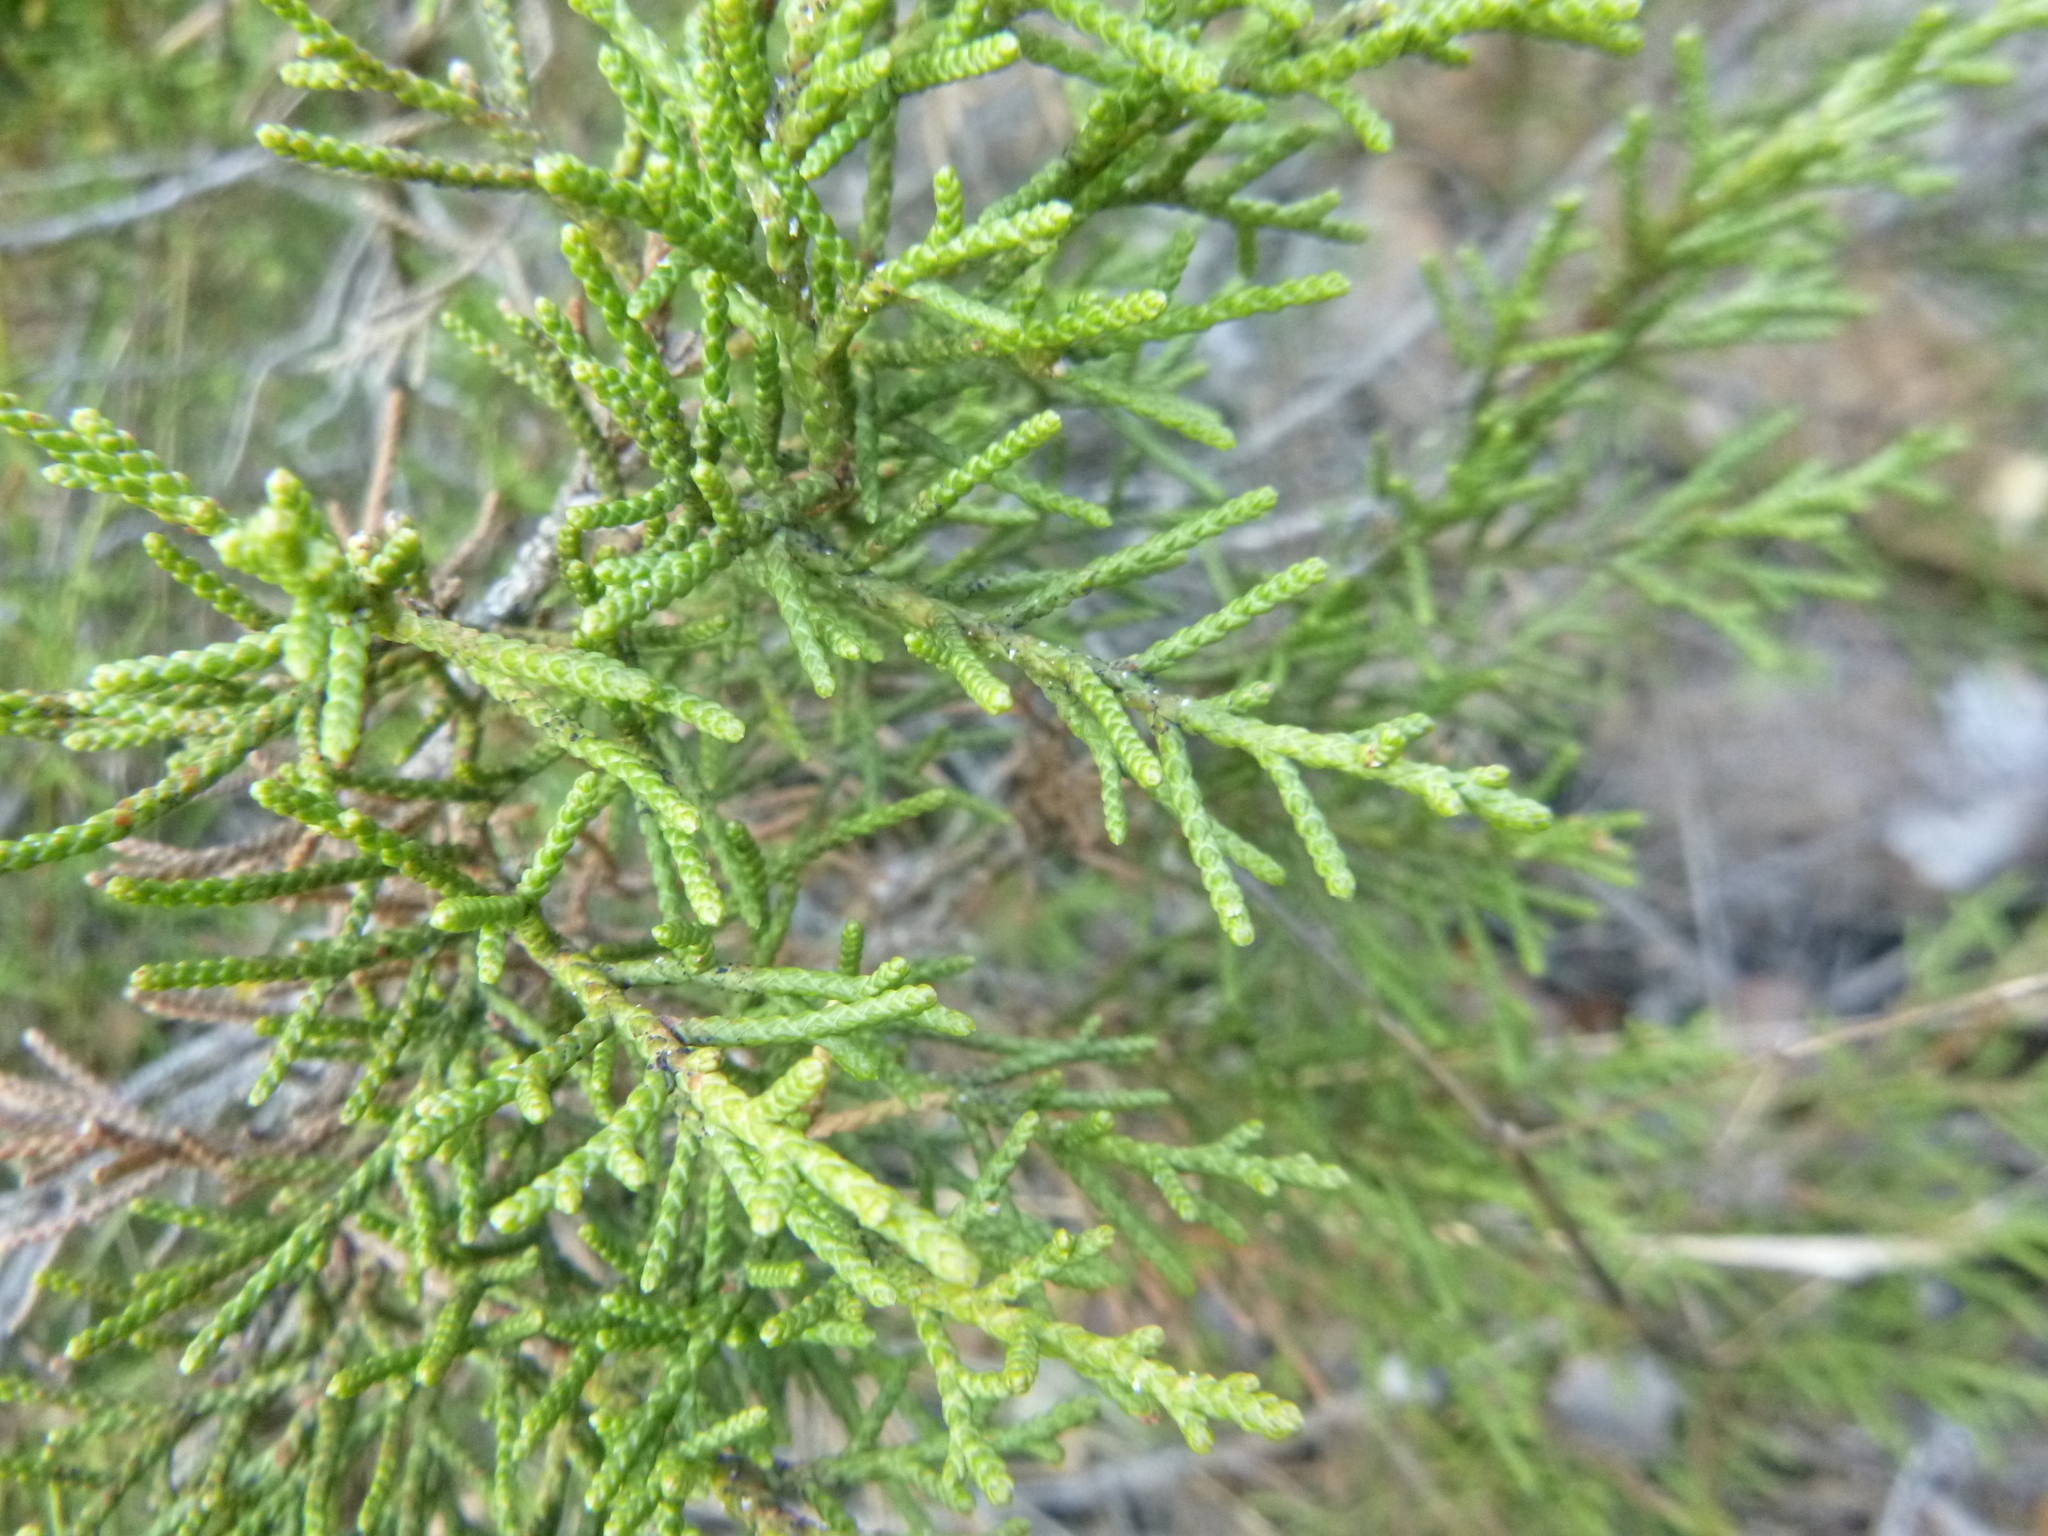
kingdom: Plantae
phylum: Tracheophyta
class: Pinopsida
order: Pinales
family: Cupressaceae
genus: Juniperus
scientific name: Juniperus phoenicea
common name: Phoenician juniper
